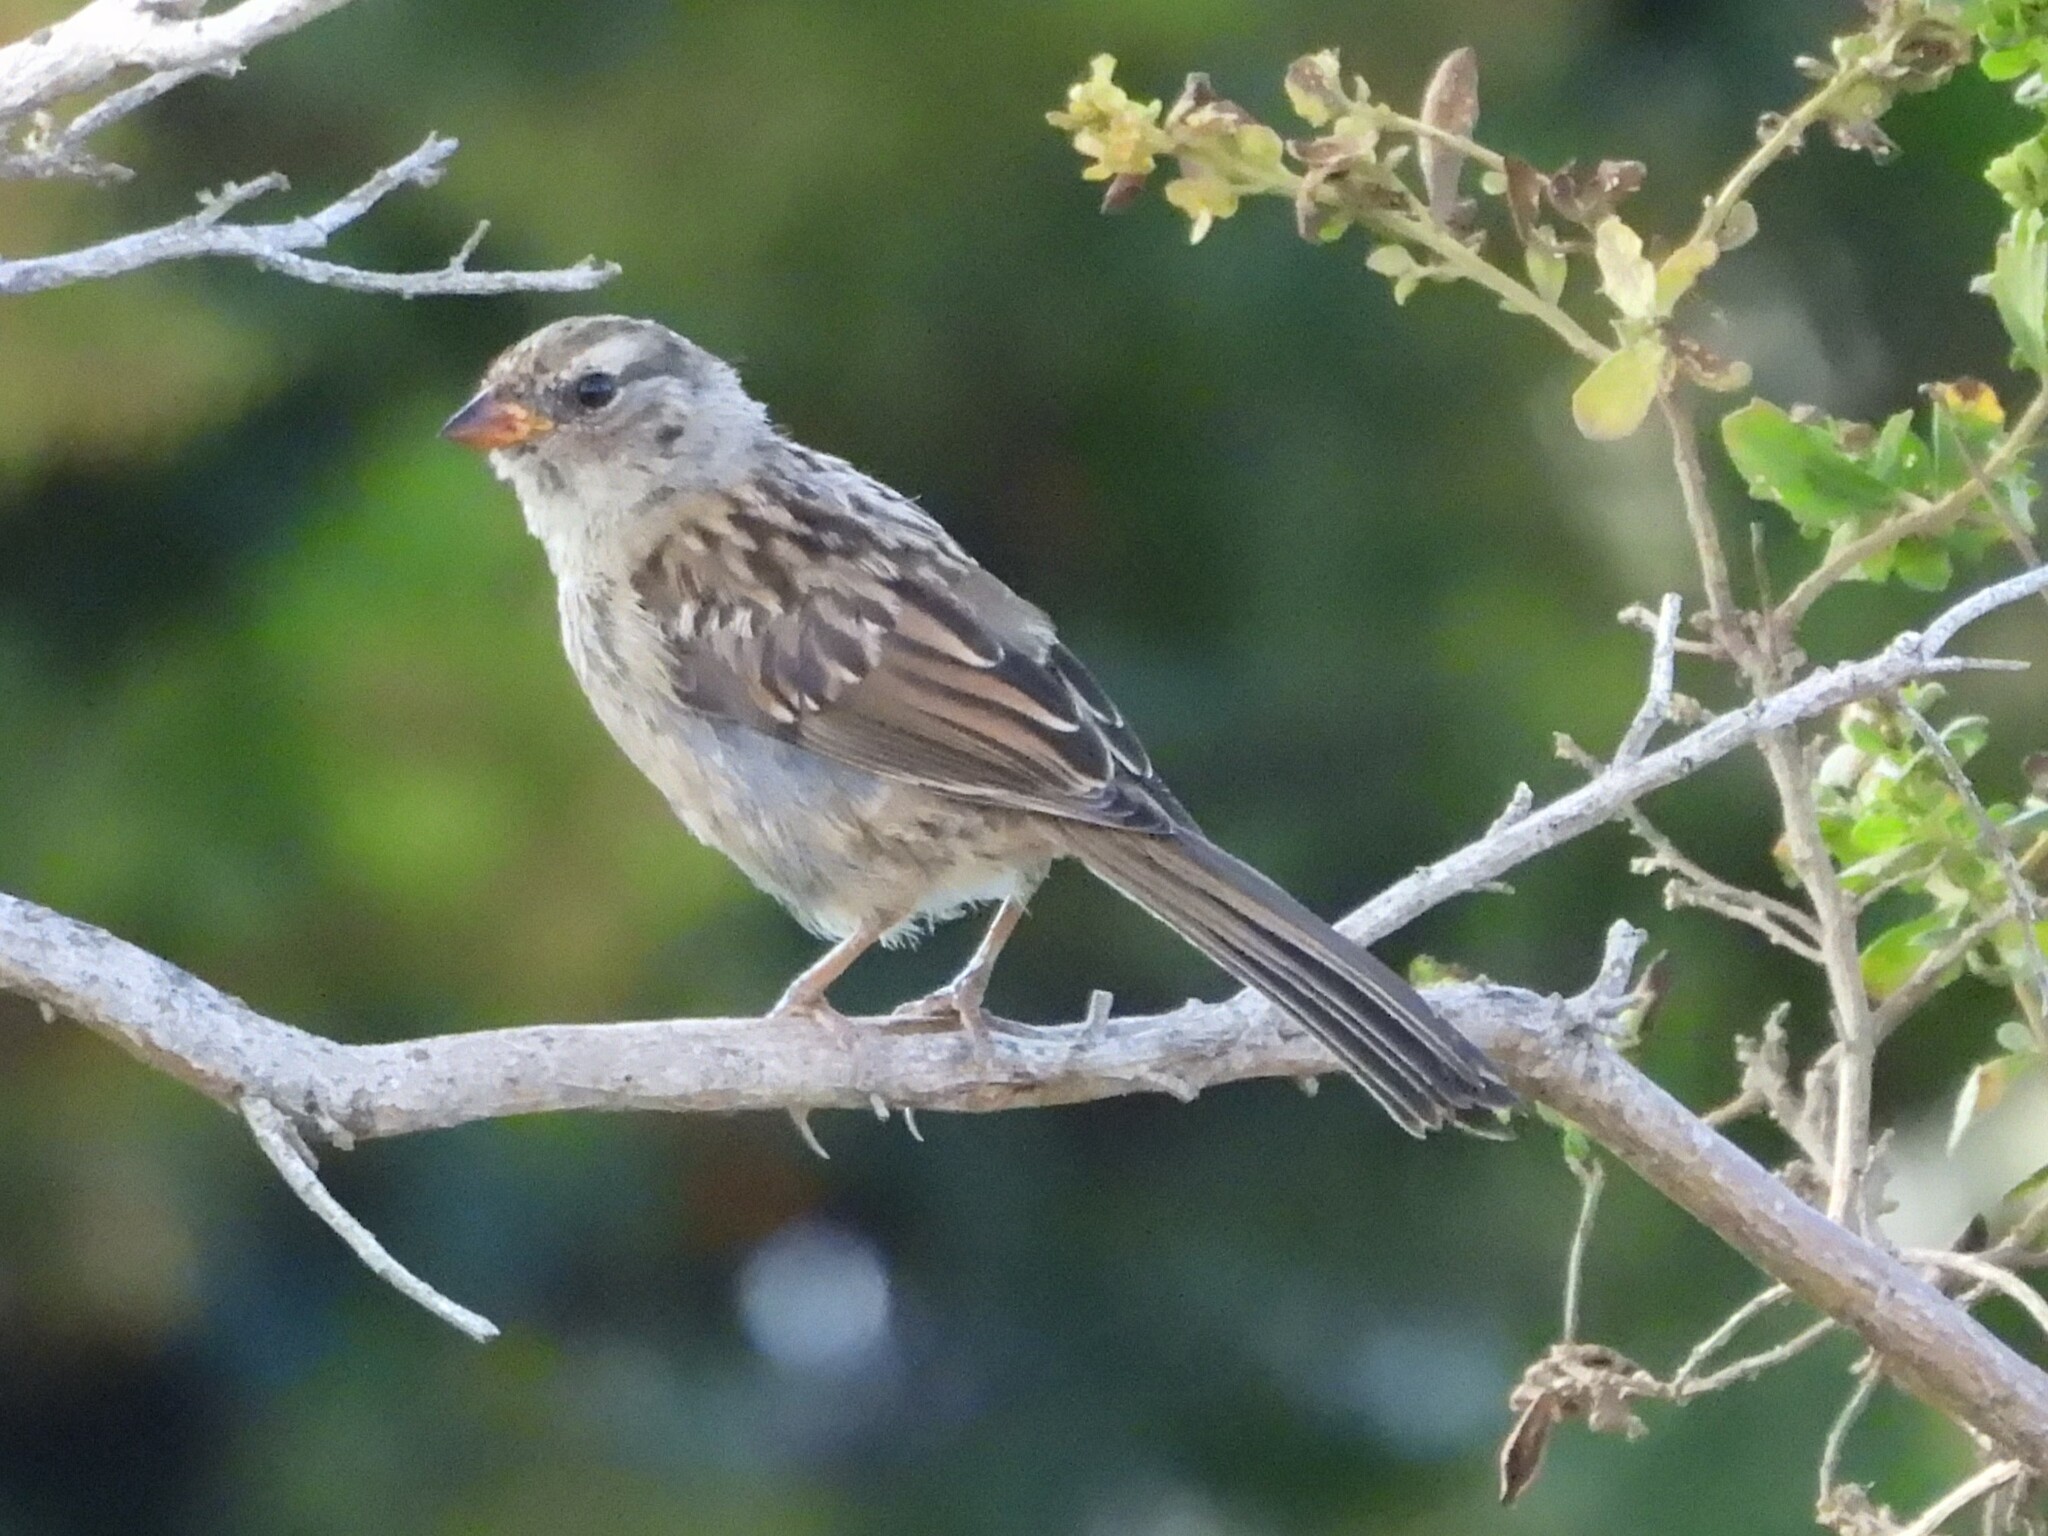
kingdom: Animalia
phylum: Chordata
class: Aves
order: Passeriformes
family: Passerellidae
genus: Zonotrichia
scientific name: Zonotrichia leucophrys
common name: White-crowned sparrow
